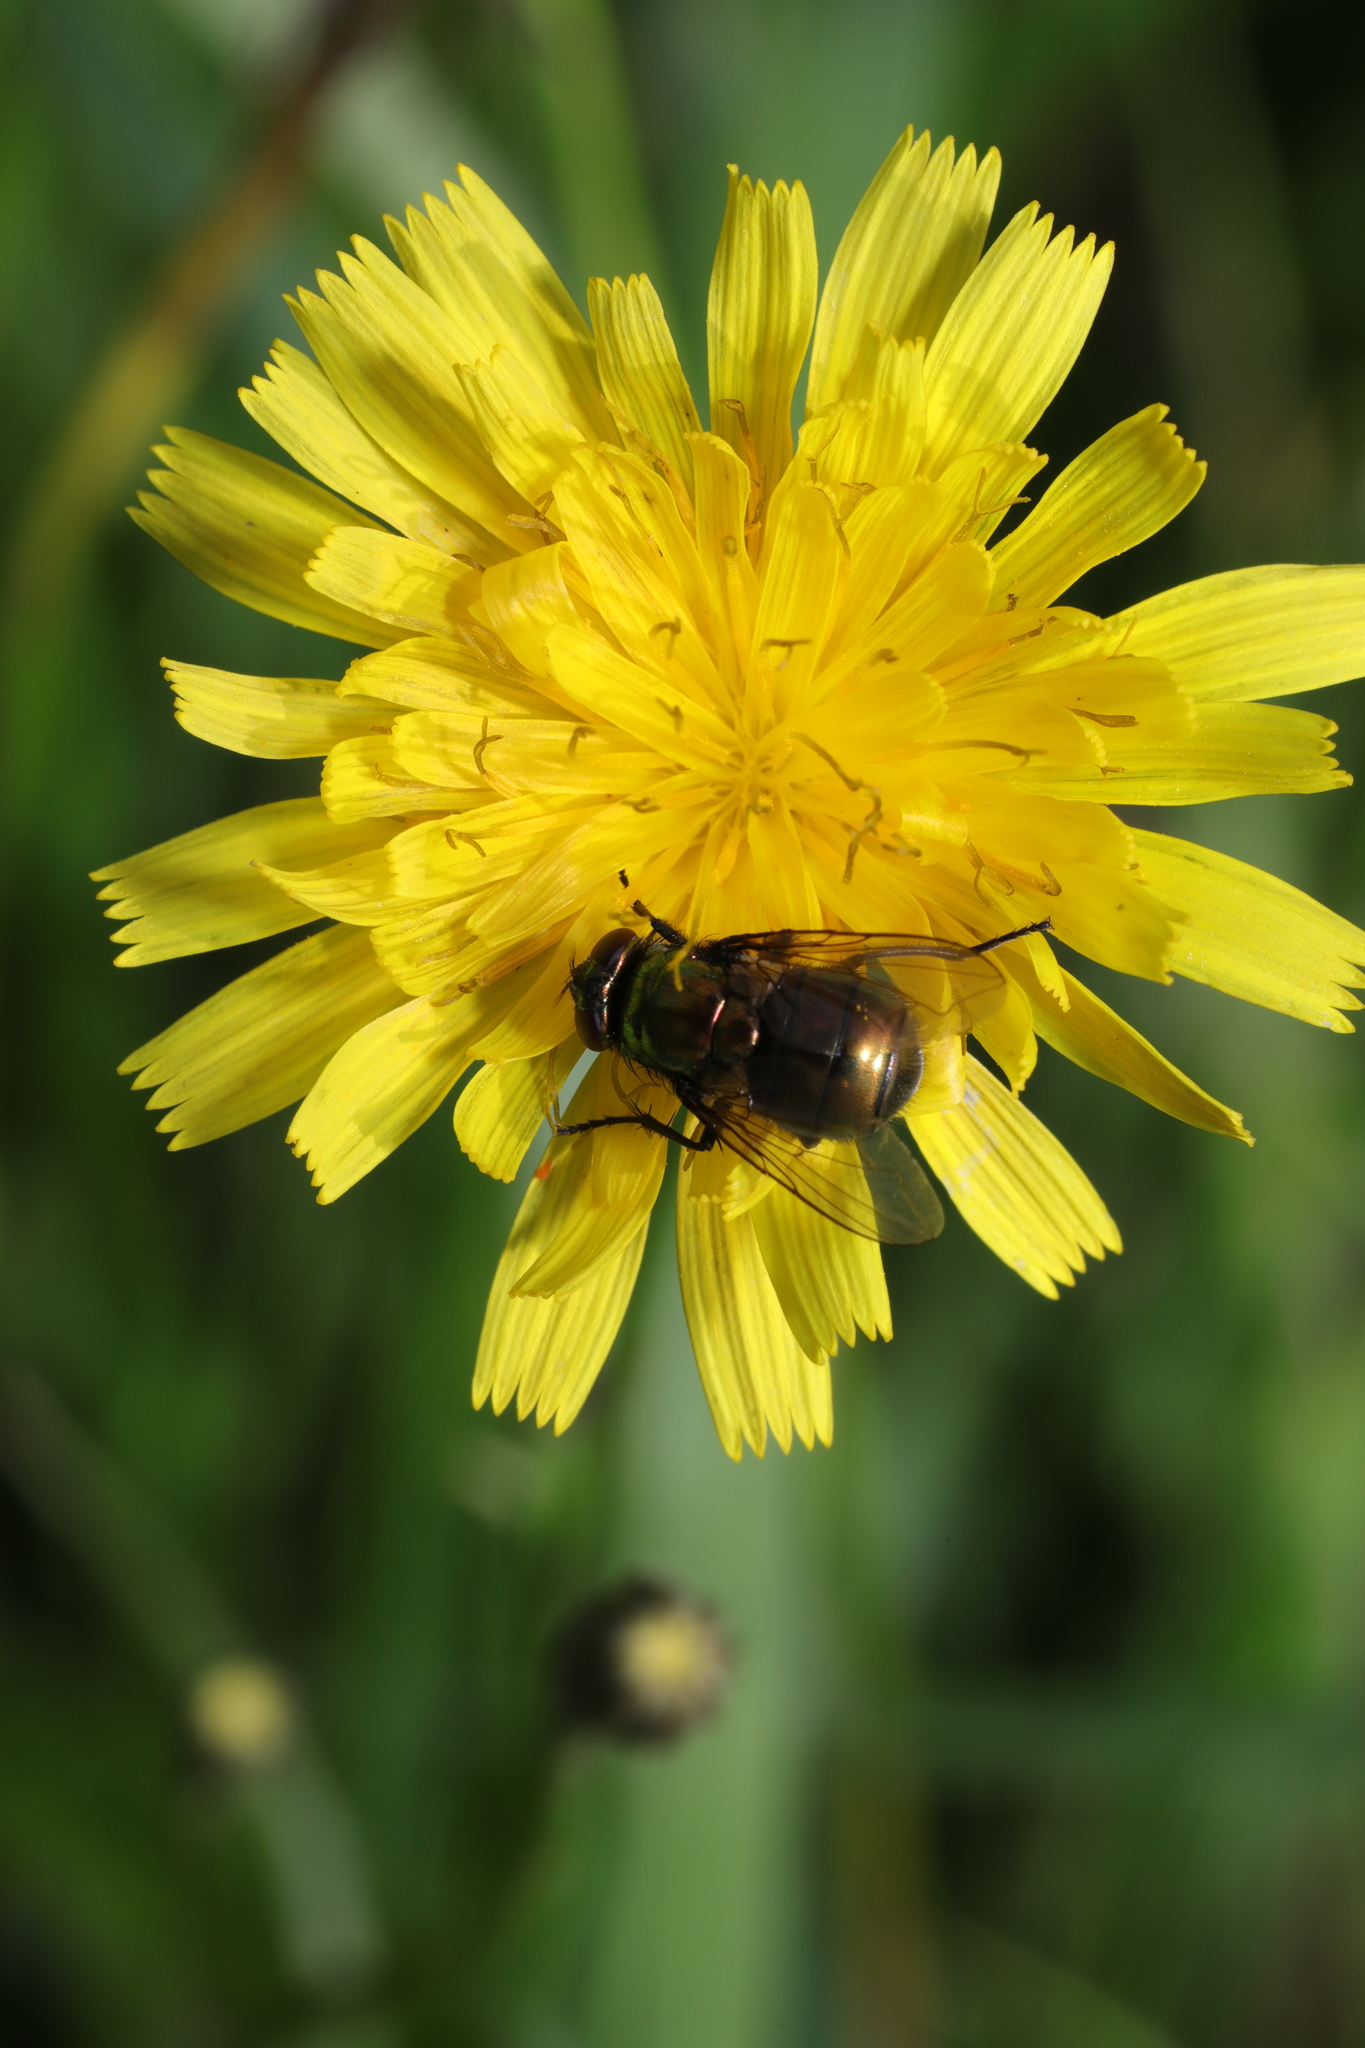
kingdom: Animalia
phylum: Arthropoda
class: Insecta
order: Diptera
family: Muscidae
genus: Neomyia
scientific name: Neomyia
